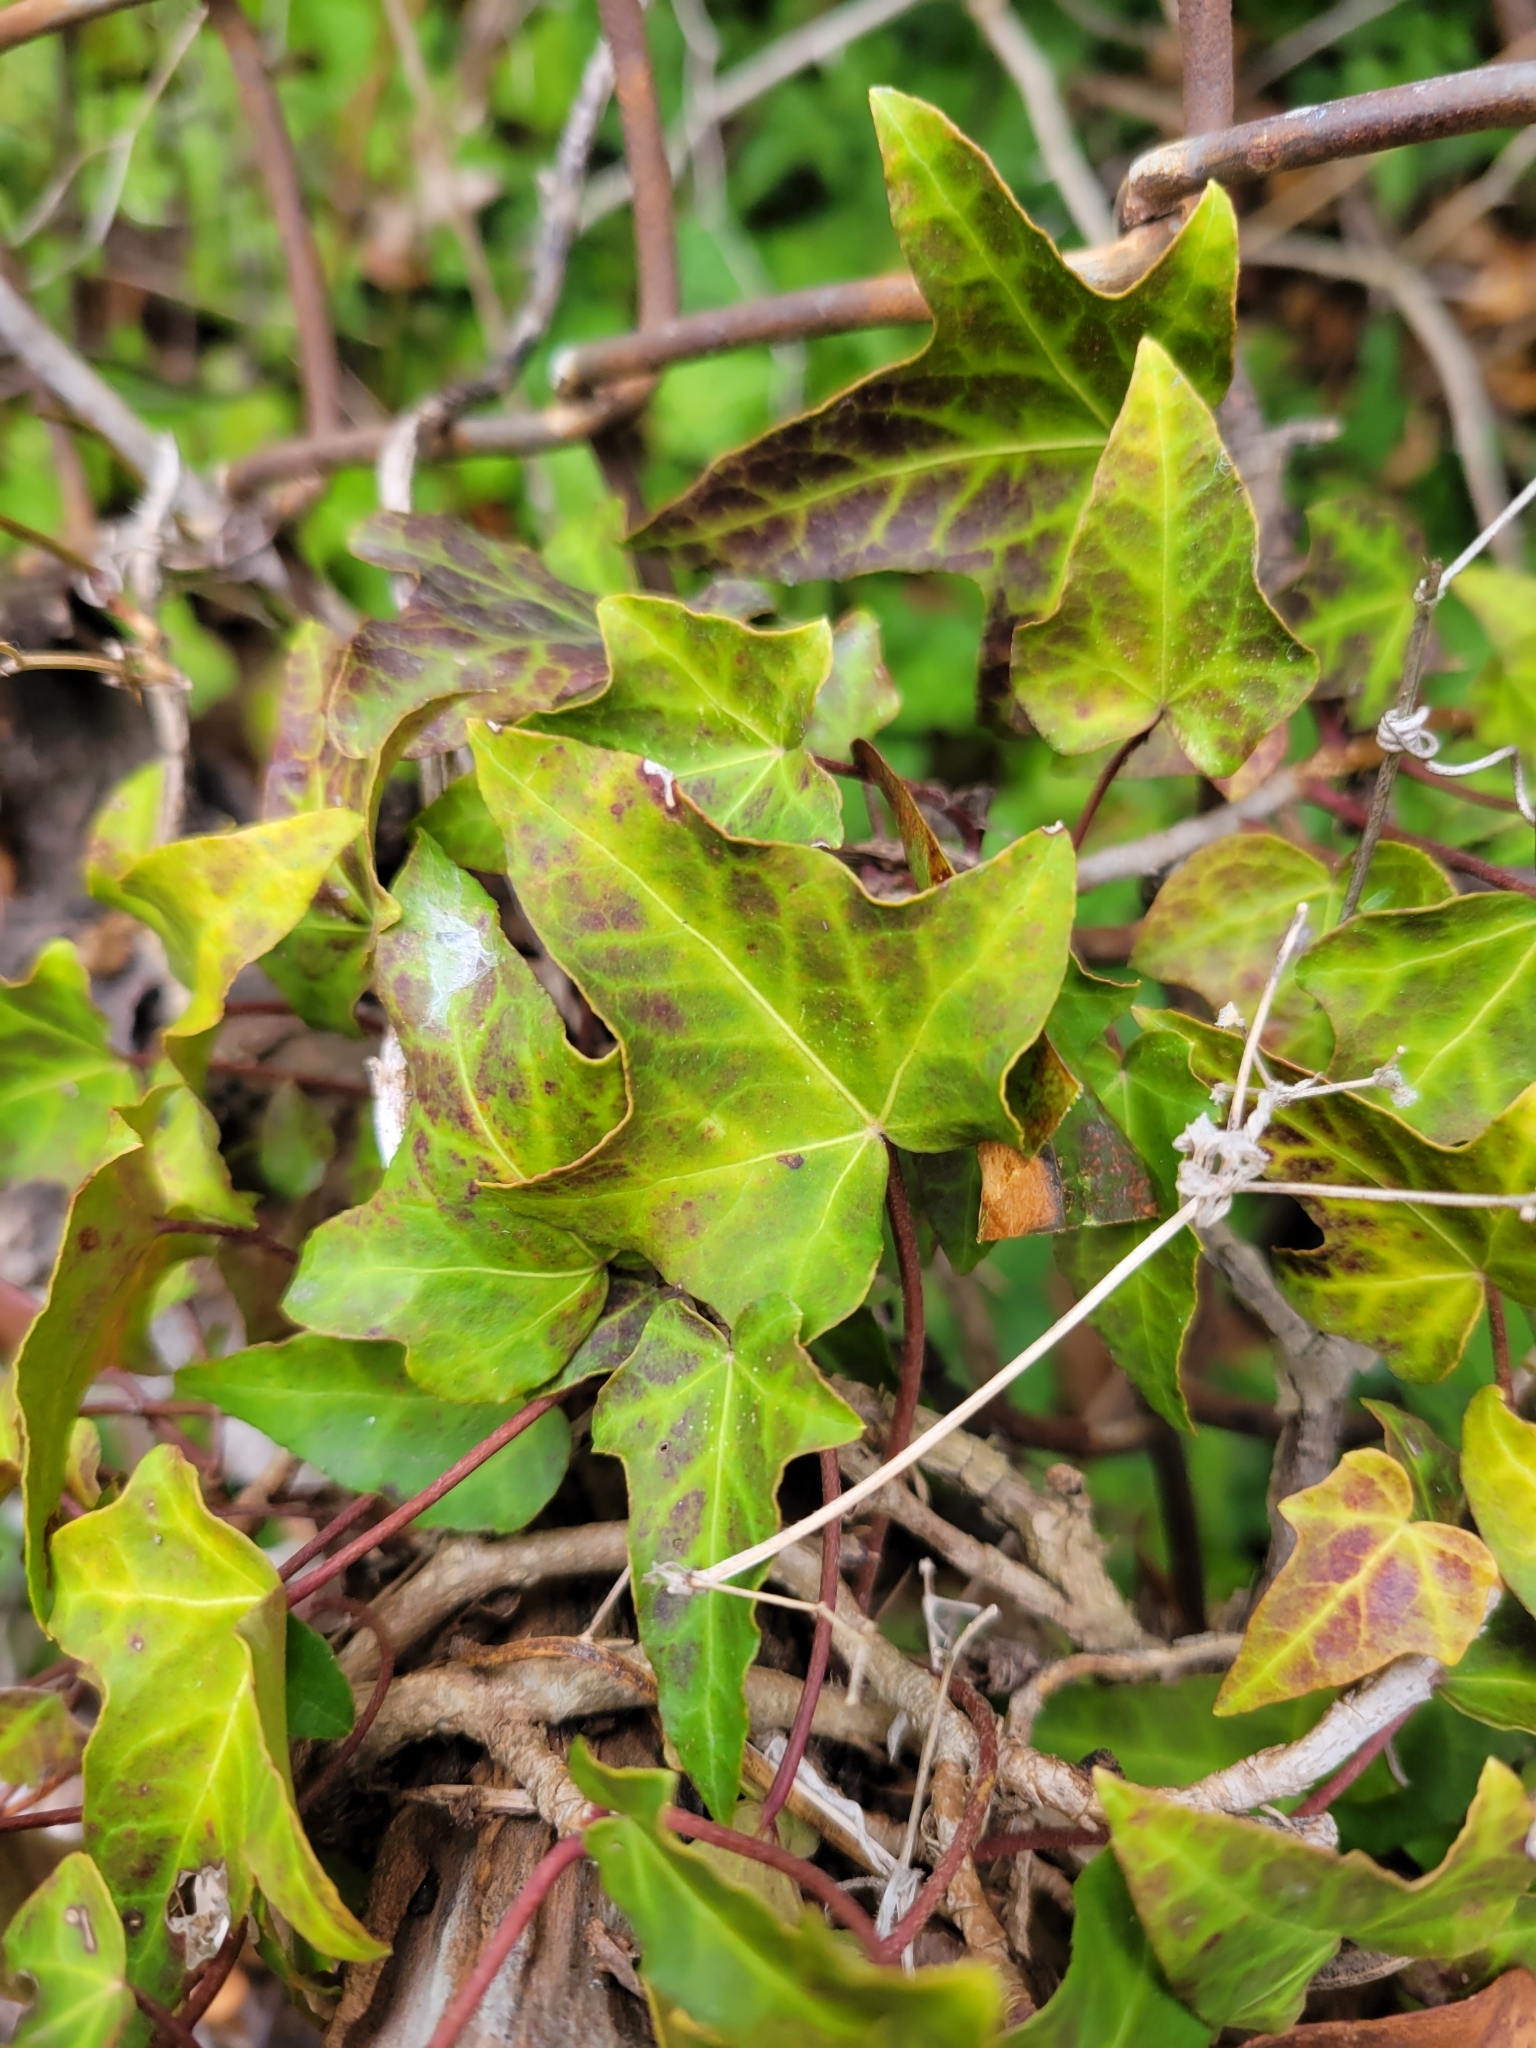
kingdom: Plantae
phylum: Tracheophyta
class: Magnoliopsida
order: Apiales
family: Araliaceae
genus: Hedera
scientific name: Hedera helix
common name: Ivy
